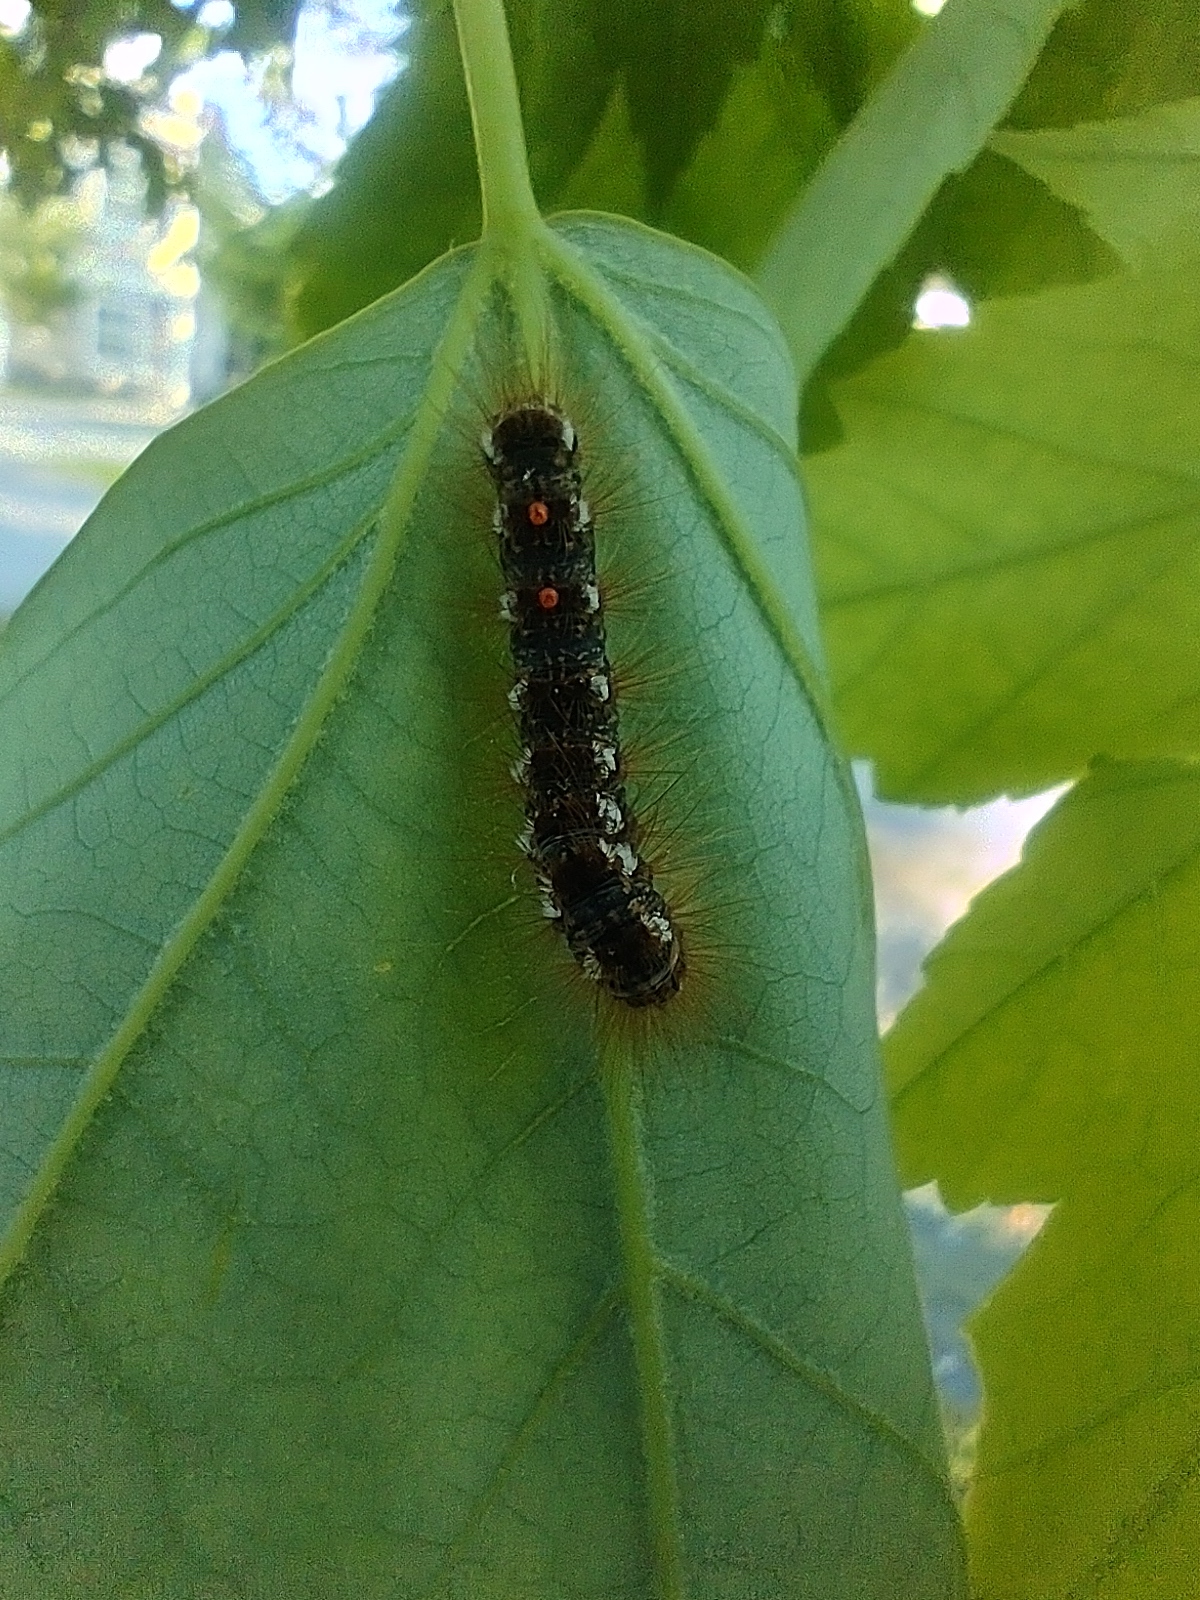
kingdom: Animalia
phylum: Arthropoda
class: Insecta
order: Lepidoptera
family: Erebidae
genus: Euproctis
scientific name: Euproctis chrysorrhoea
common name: Brown-tail
